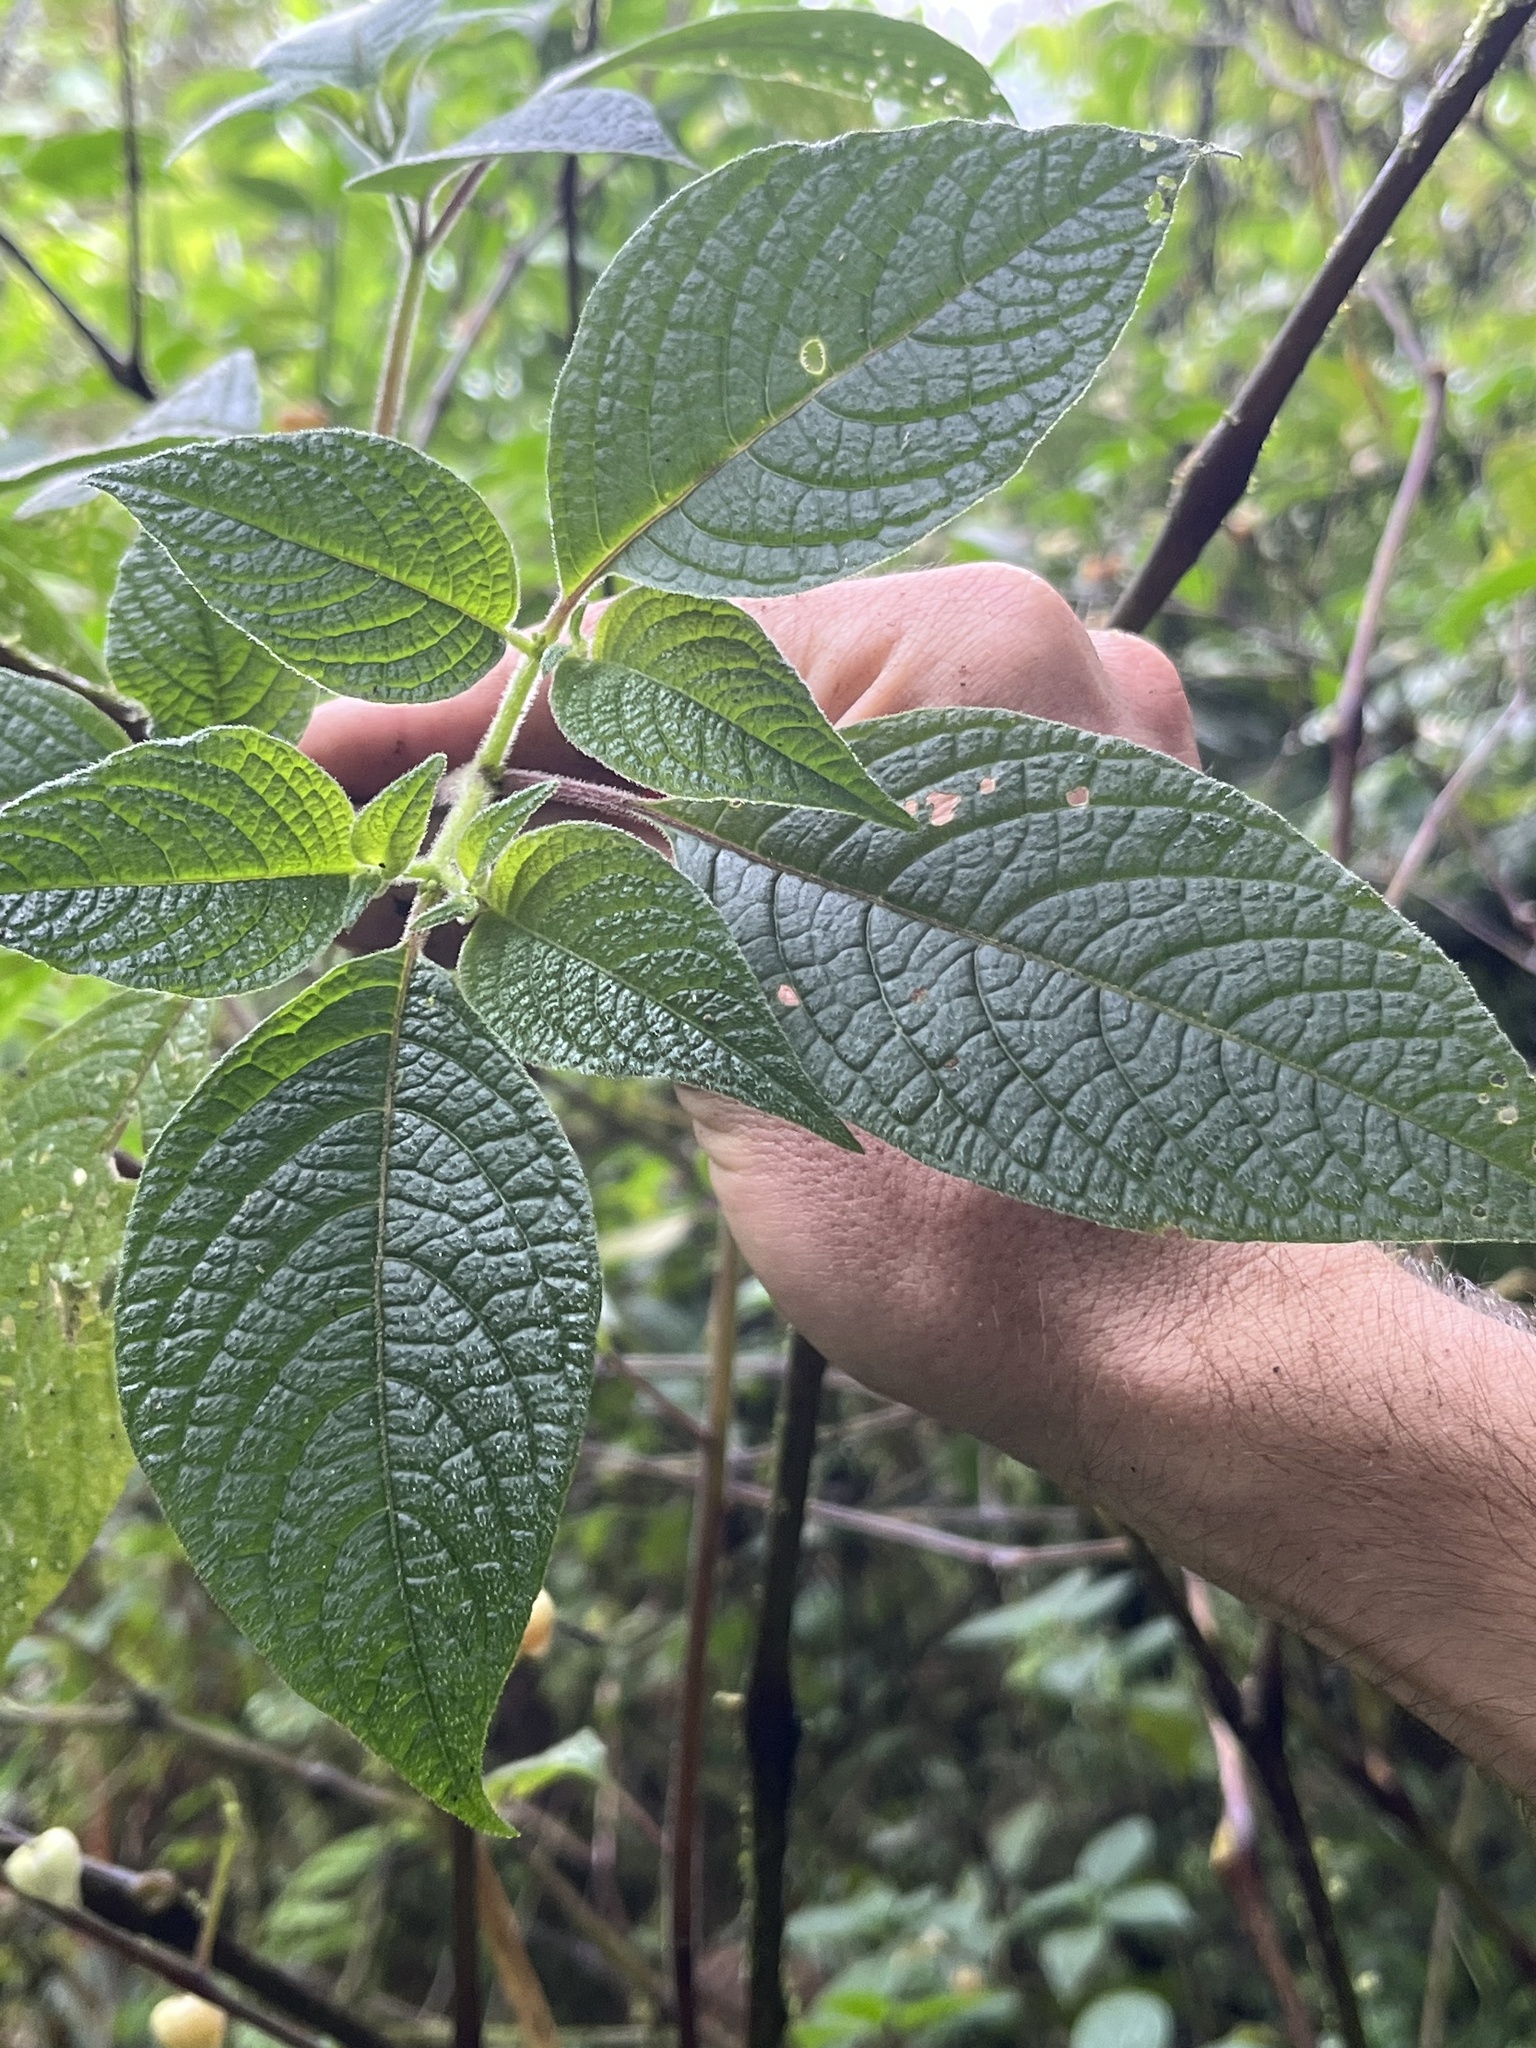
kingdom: Plantae
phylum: Tracheophyta
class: Magnoliopsida
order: Solanales
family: Solanaceae
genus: Deprea
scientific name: Deprea bitteriana
